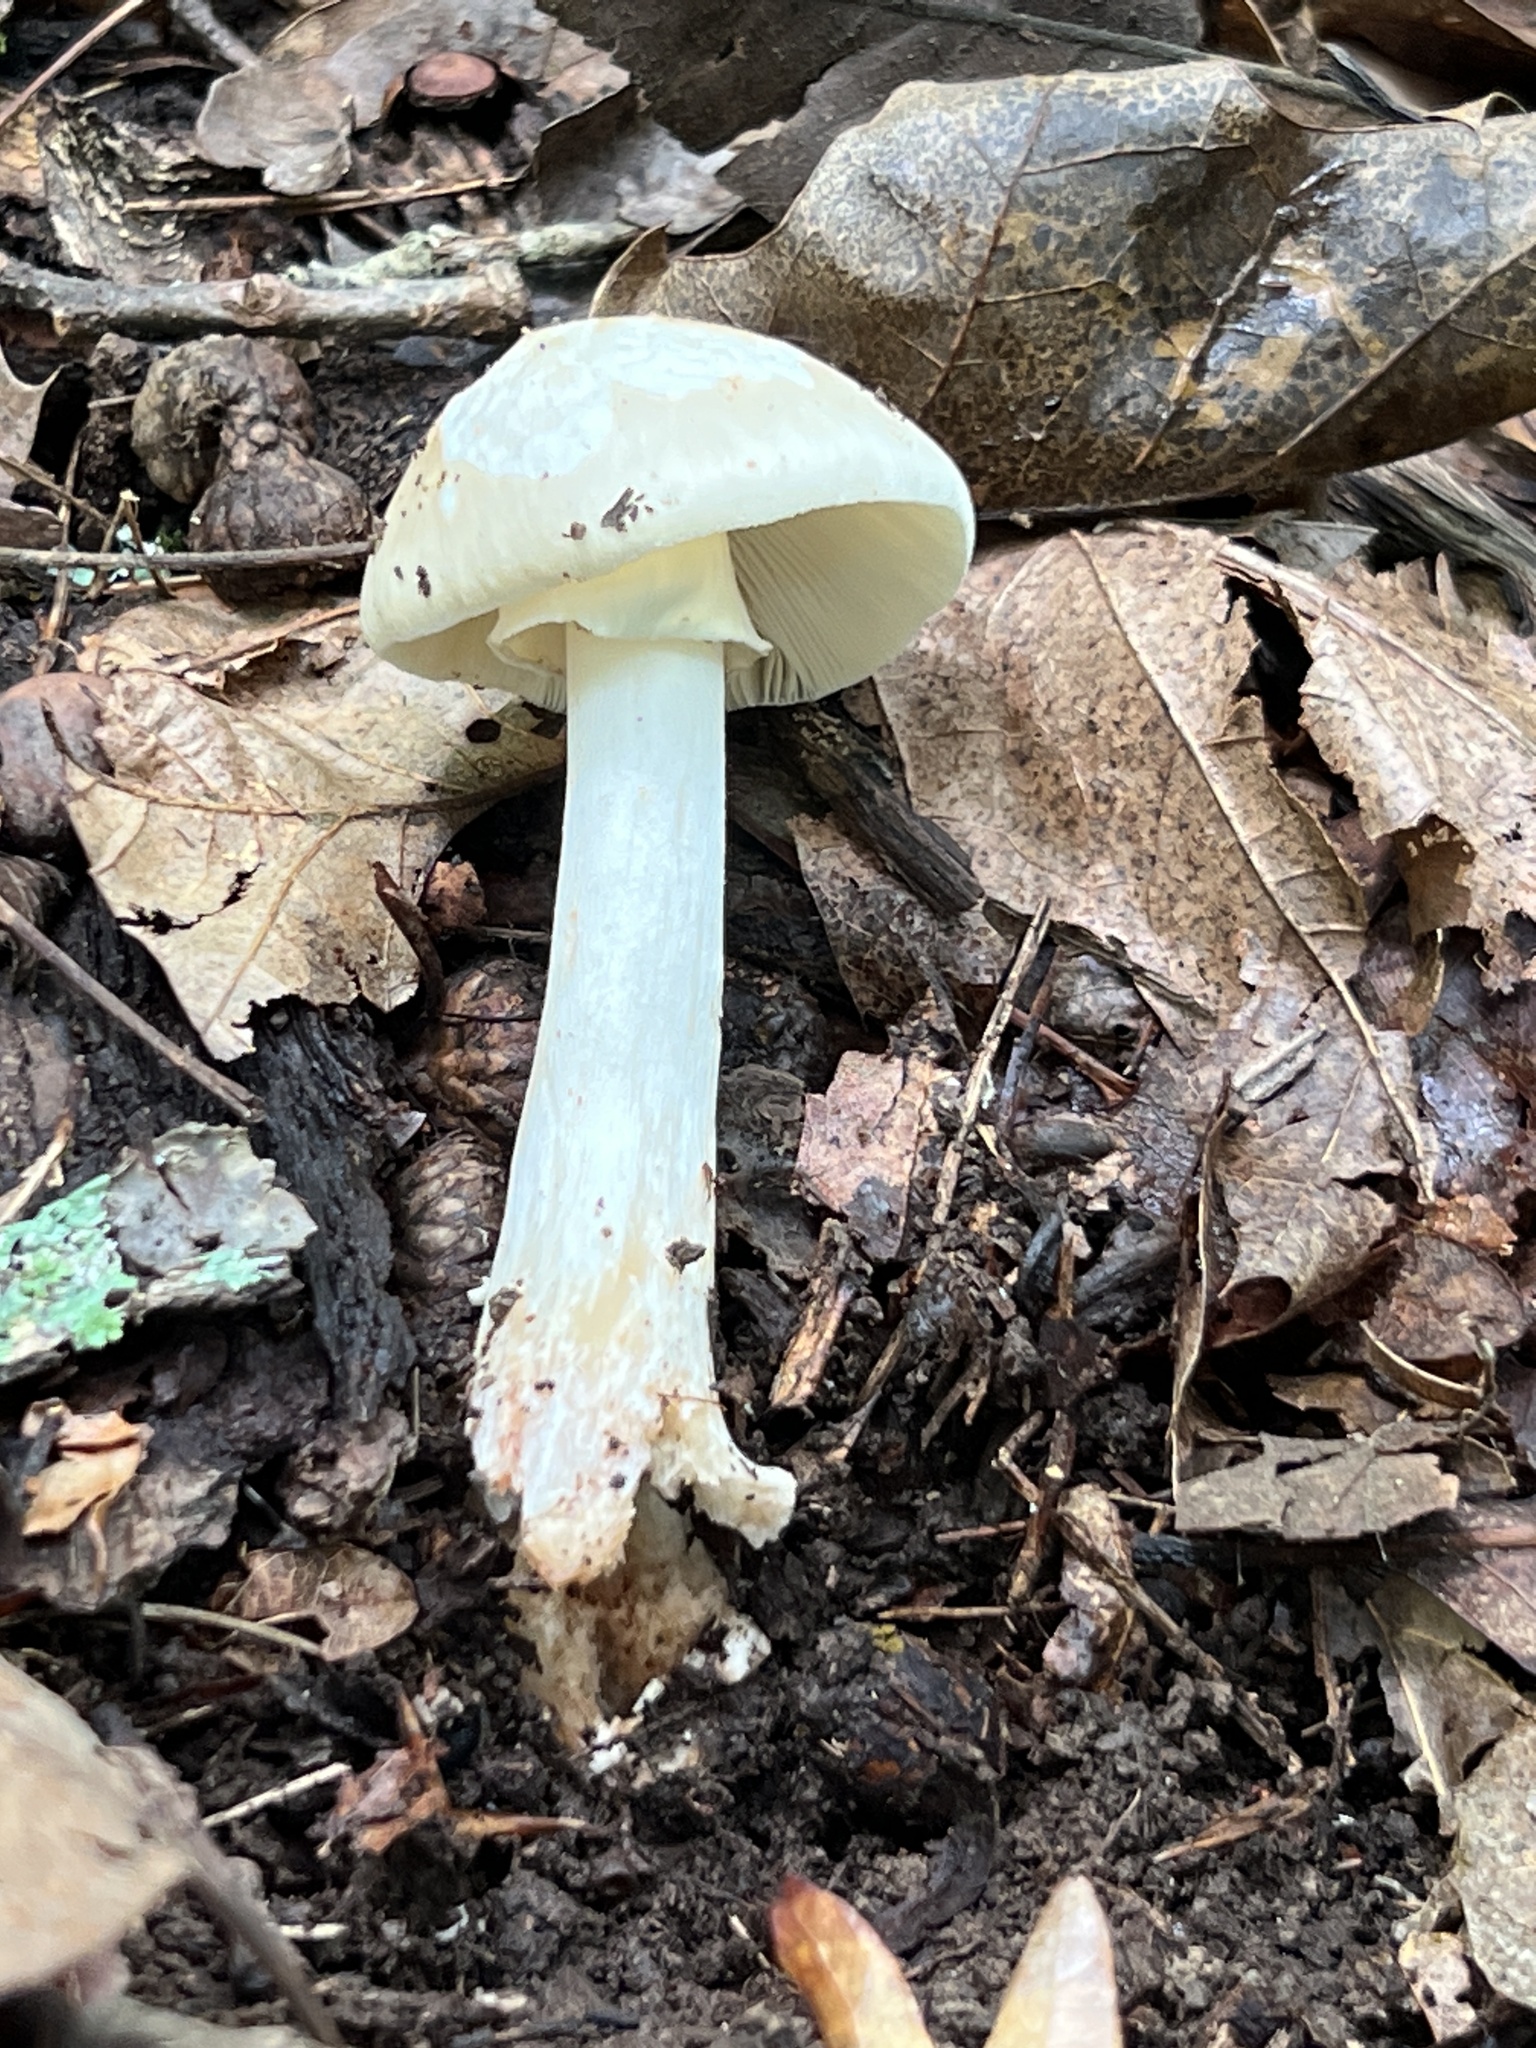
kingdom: Fungi
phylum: Basidiomycota
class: Agaricomycetes
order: Agaricales
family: Amanitaceae
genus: Amanita
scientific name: Amanita brunnescens
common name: Brown american star-footed amanita
